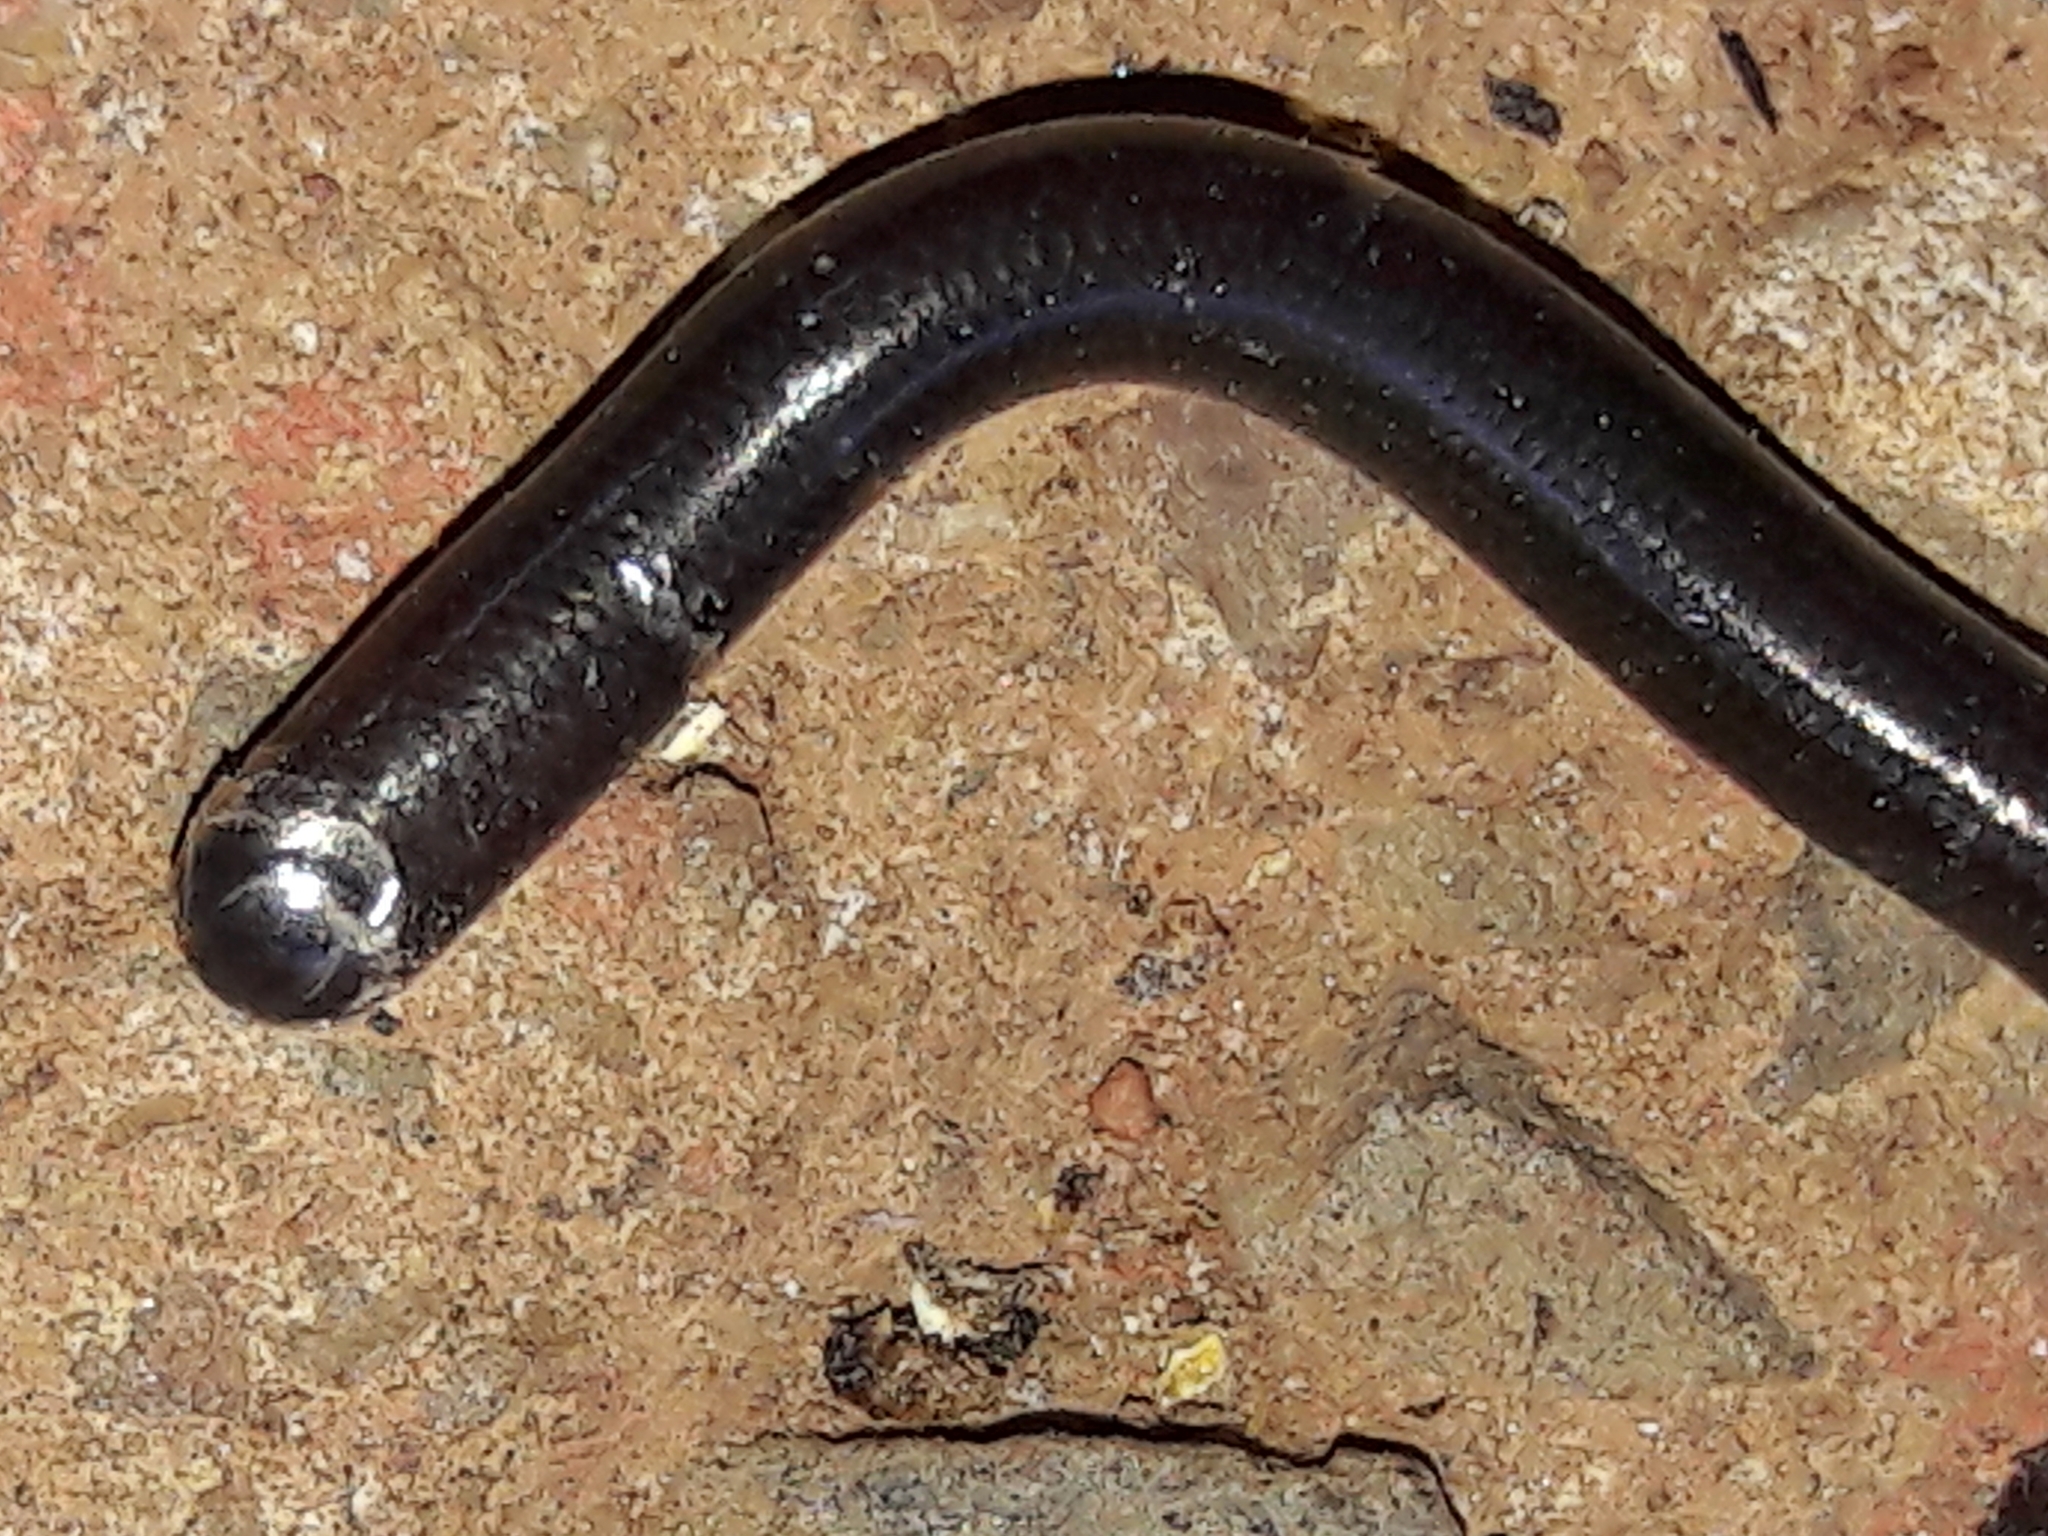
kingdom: Animalia
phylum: Chordata
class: Squamata
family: Anomalepididae
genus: Liotyphlops
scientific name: Liotyphlops ternetzii
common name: Ternetz's blind snake
